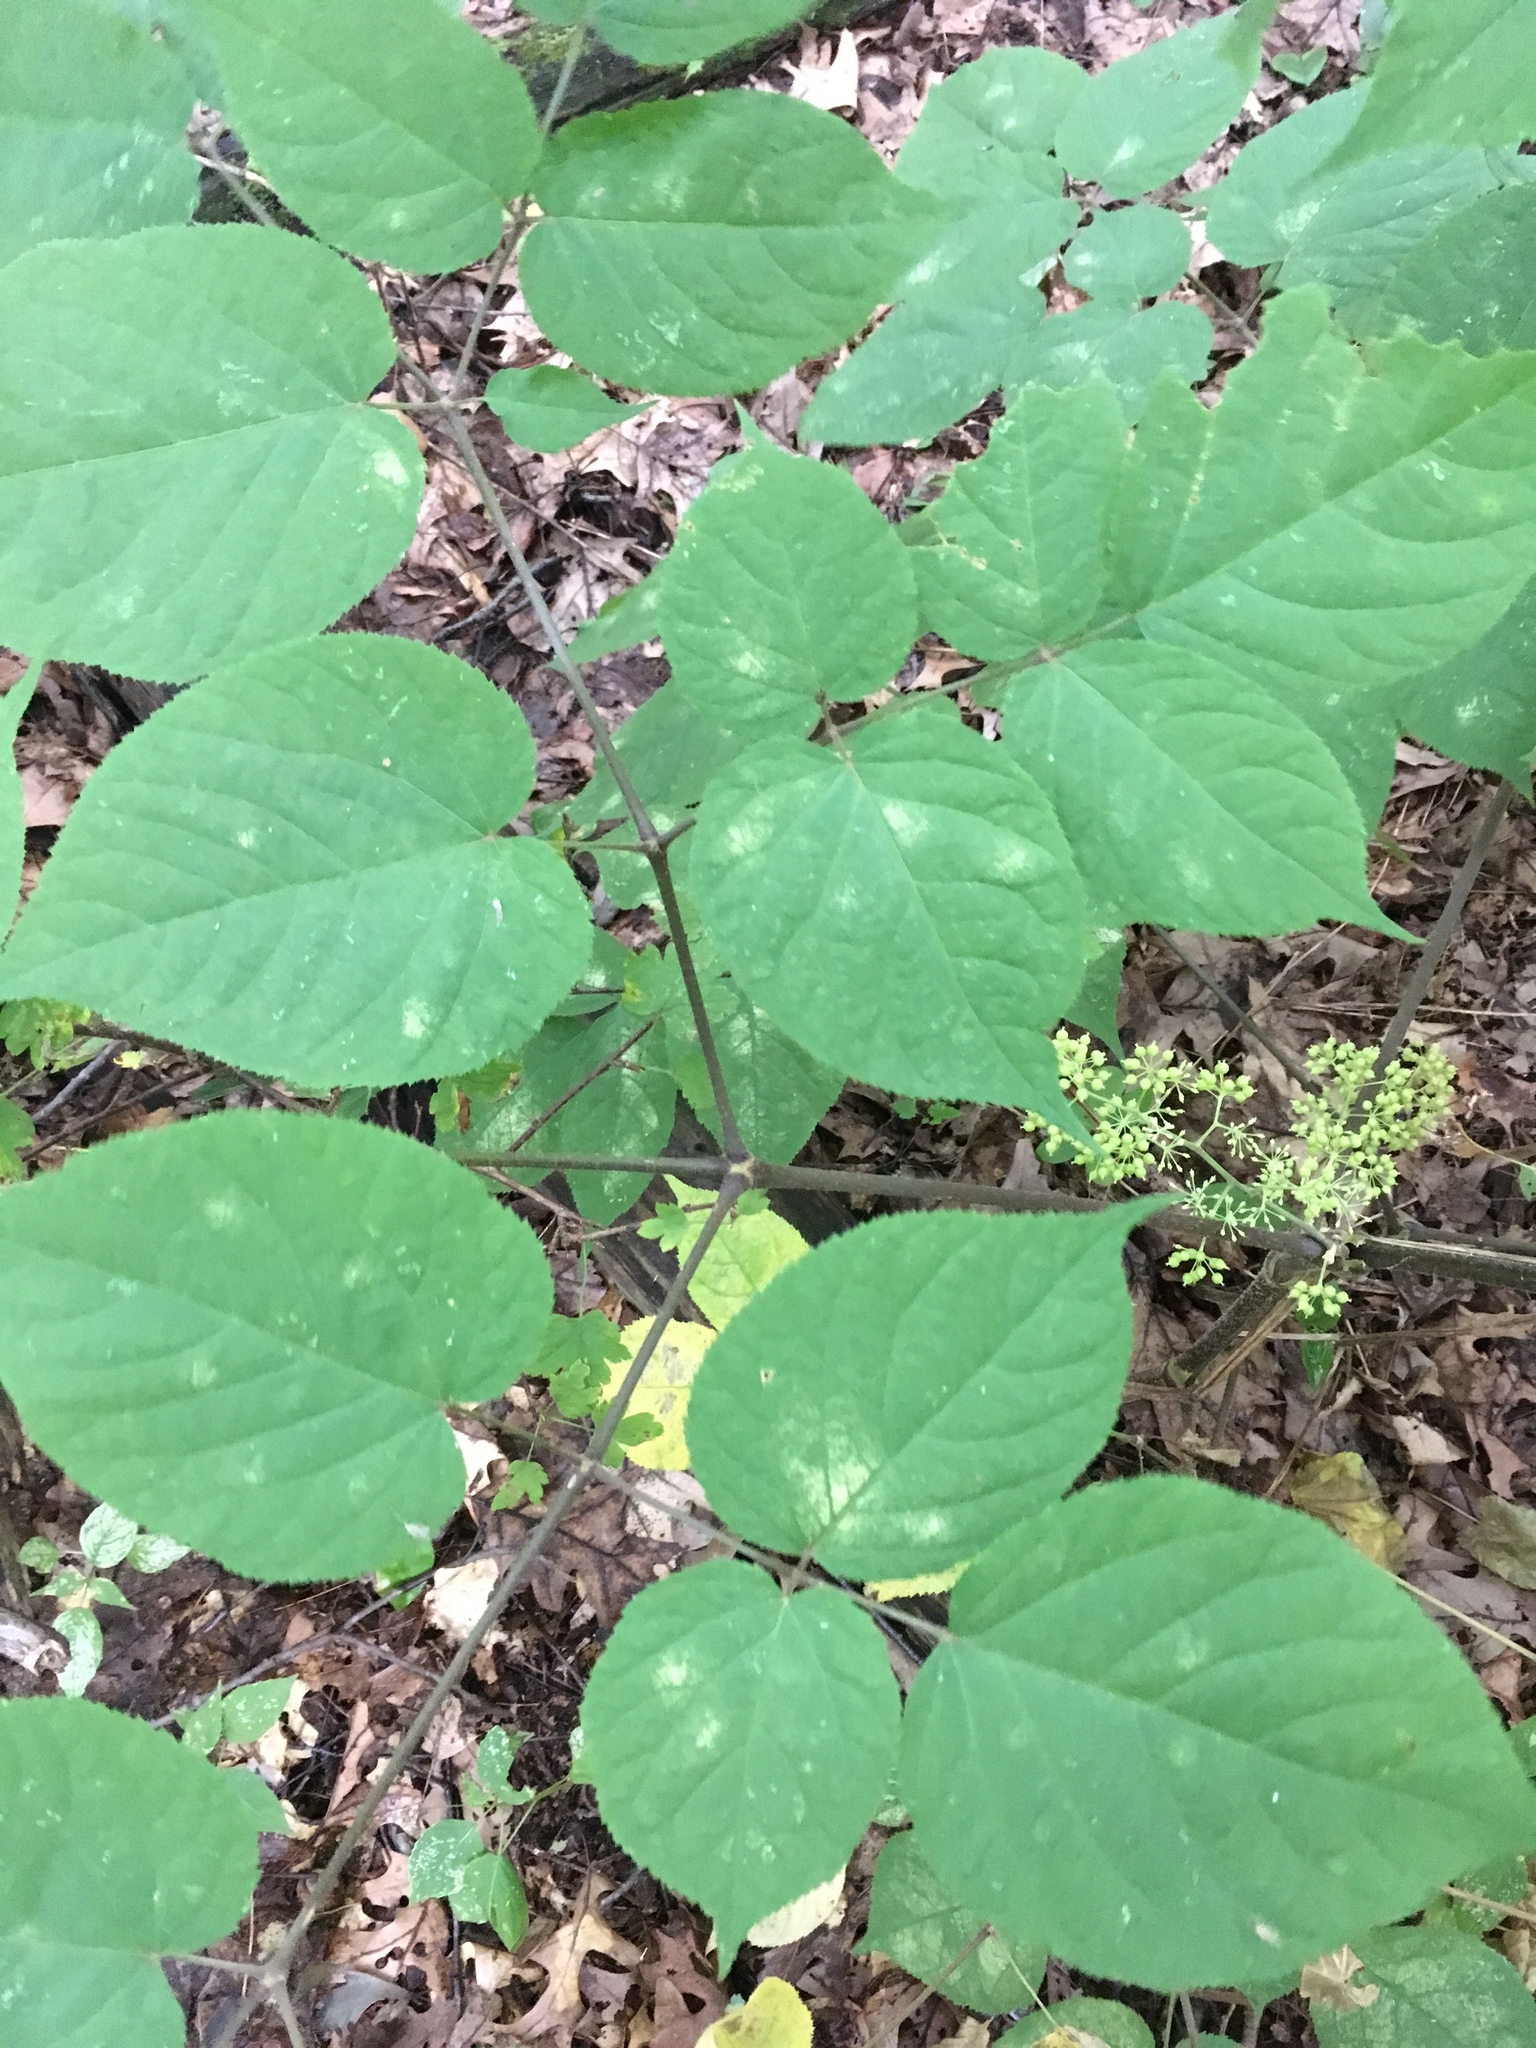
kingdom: Plantae
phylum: Tracheophyta
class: Magnoliopsida
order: Apiales
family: Araliaceae
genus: Aralia
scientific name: Aralia racemosa
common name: American-spikenard
